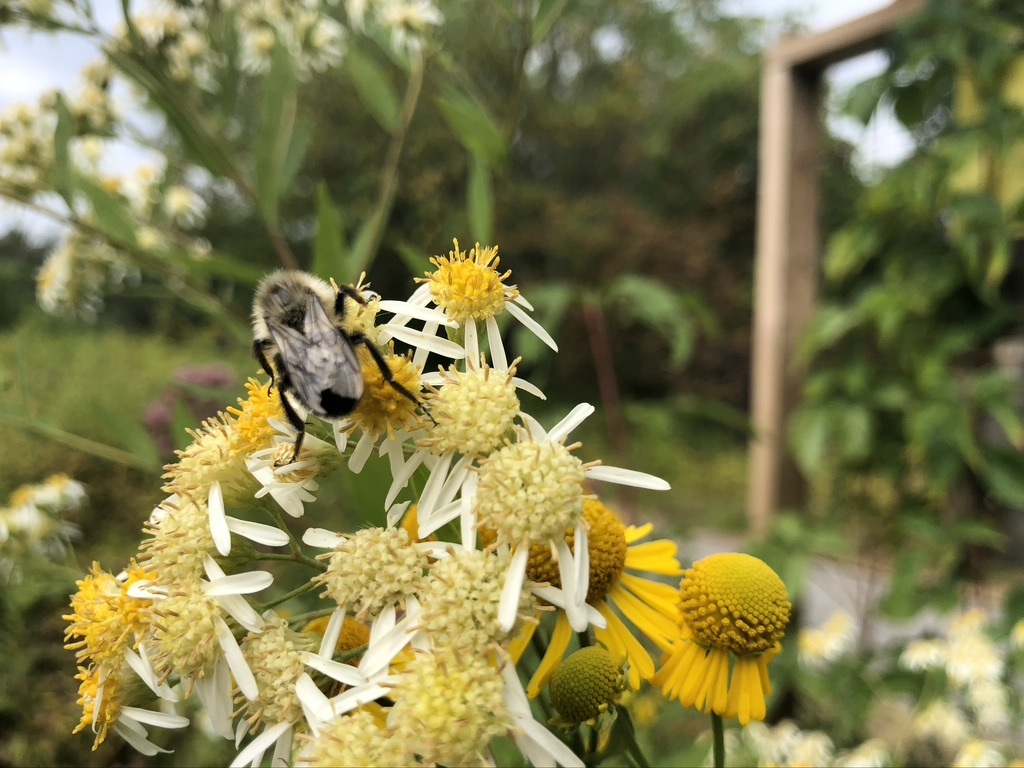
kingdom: Animalia
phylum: Arthropoda
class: Insecta
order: Hymenoptera
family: Apidae
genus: Bombus
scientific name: Bombus impatiens
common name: Common eastern bumble bee
